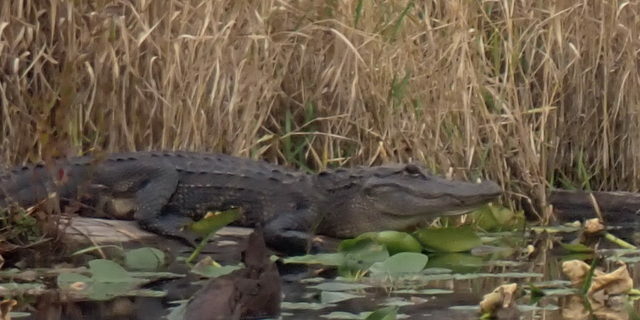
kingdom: Animalia
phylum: Chordata
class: Crocodylia
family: Alligatoridae
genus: Alligator
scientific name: Alligator mississippiensis
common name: American alligator
